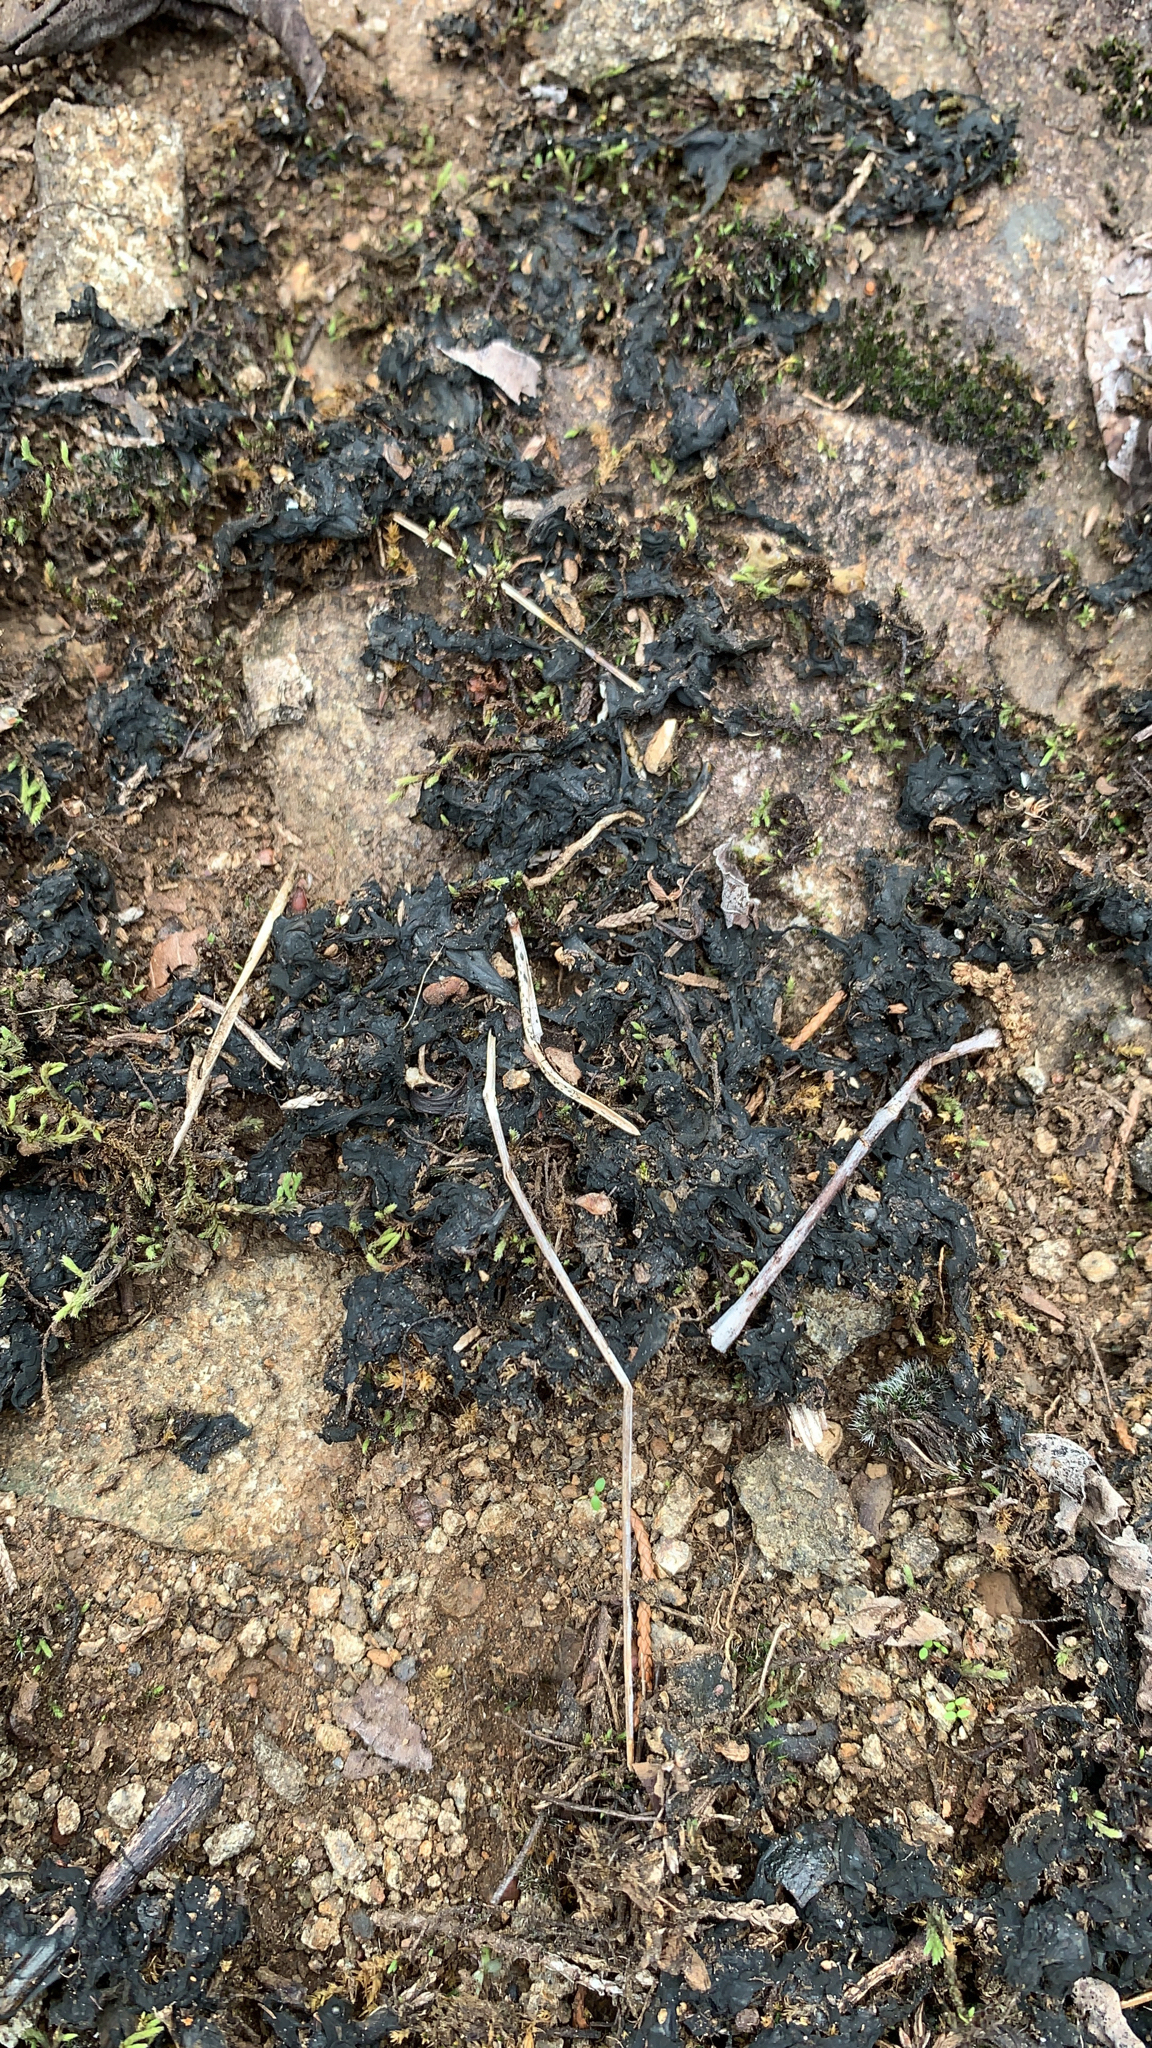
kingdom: Bacteria
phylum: Cyanobacteria
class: Cyanobacteriia
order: Cyanobacteriales
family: Nostocaceae
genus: Nostoc
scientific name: Nostoc commune
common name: Star jelly
